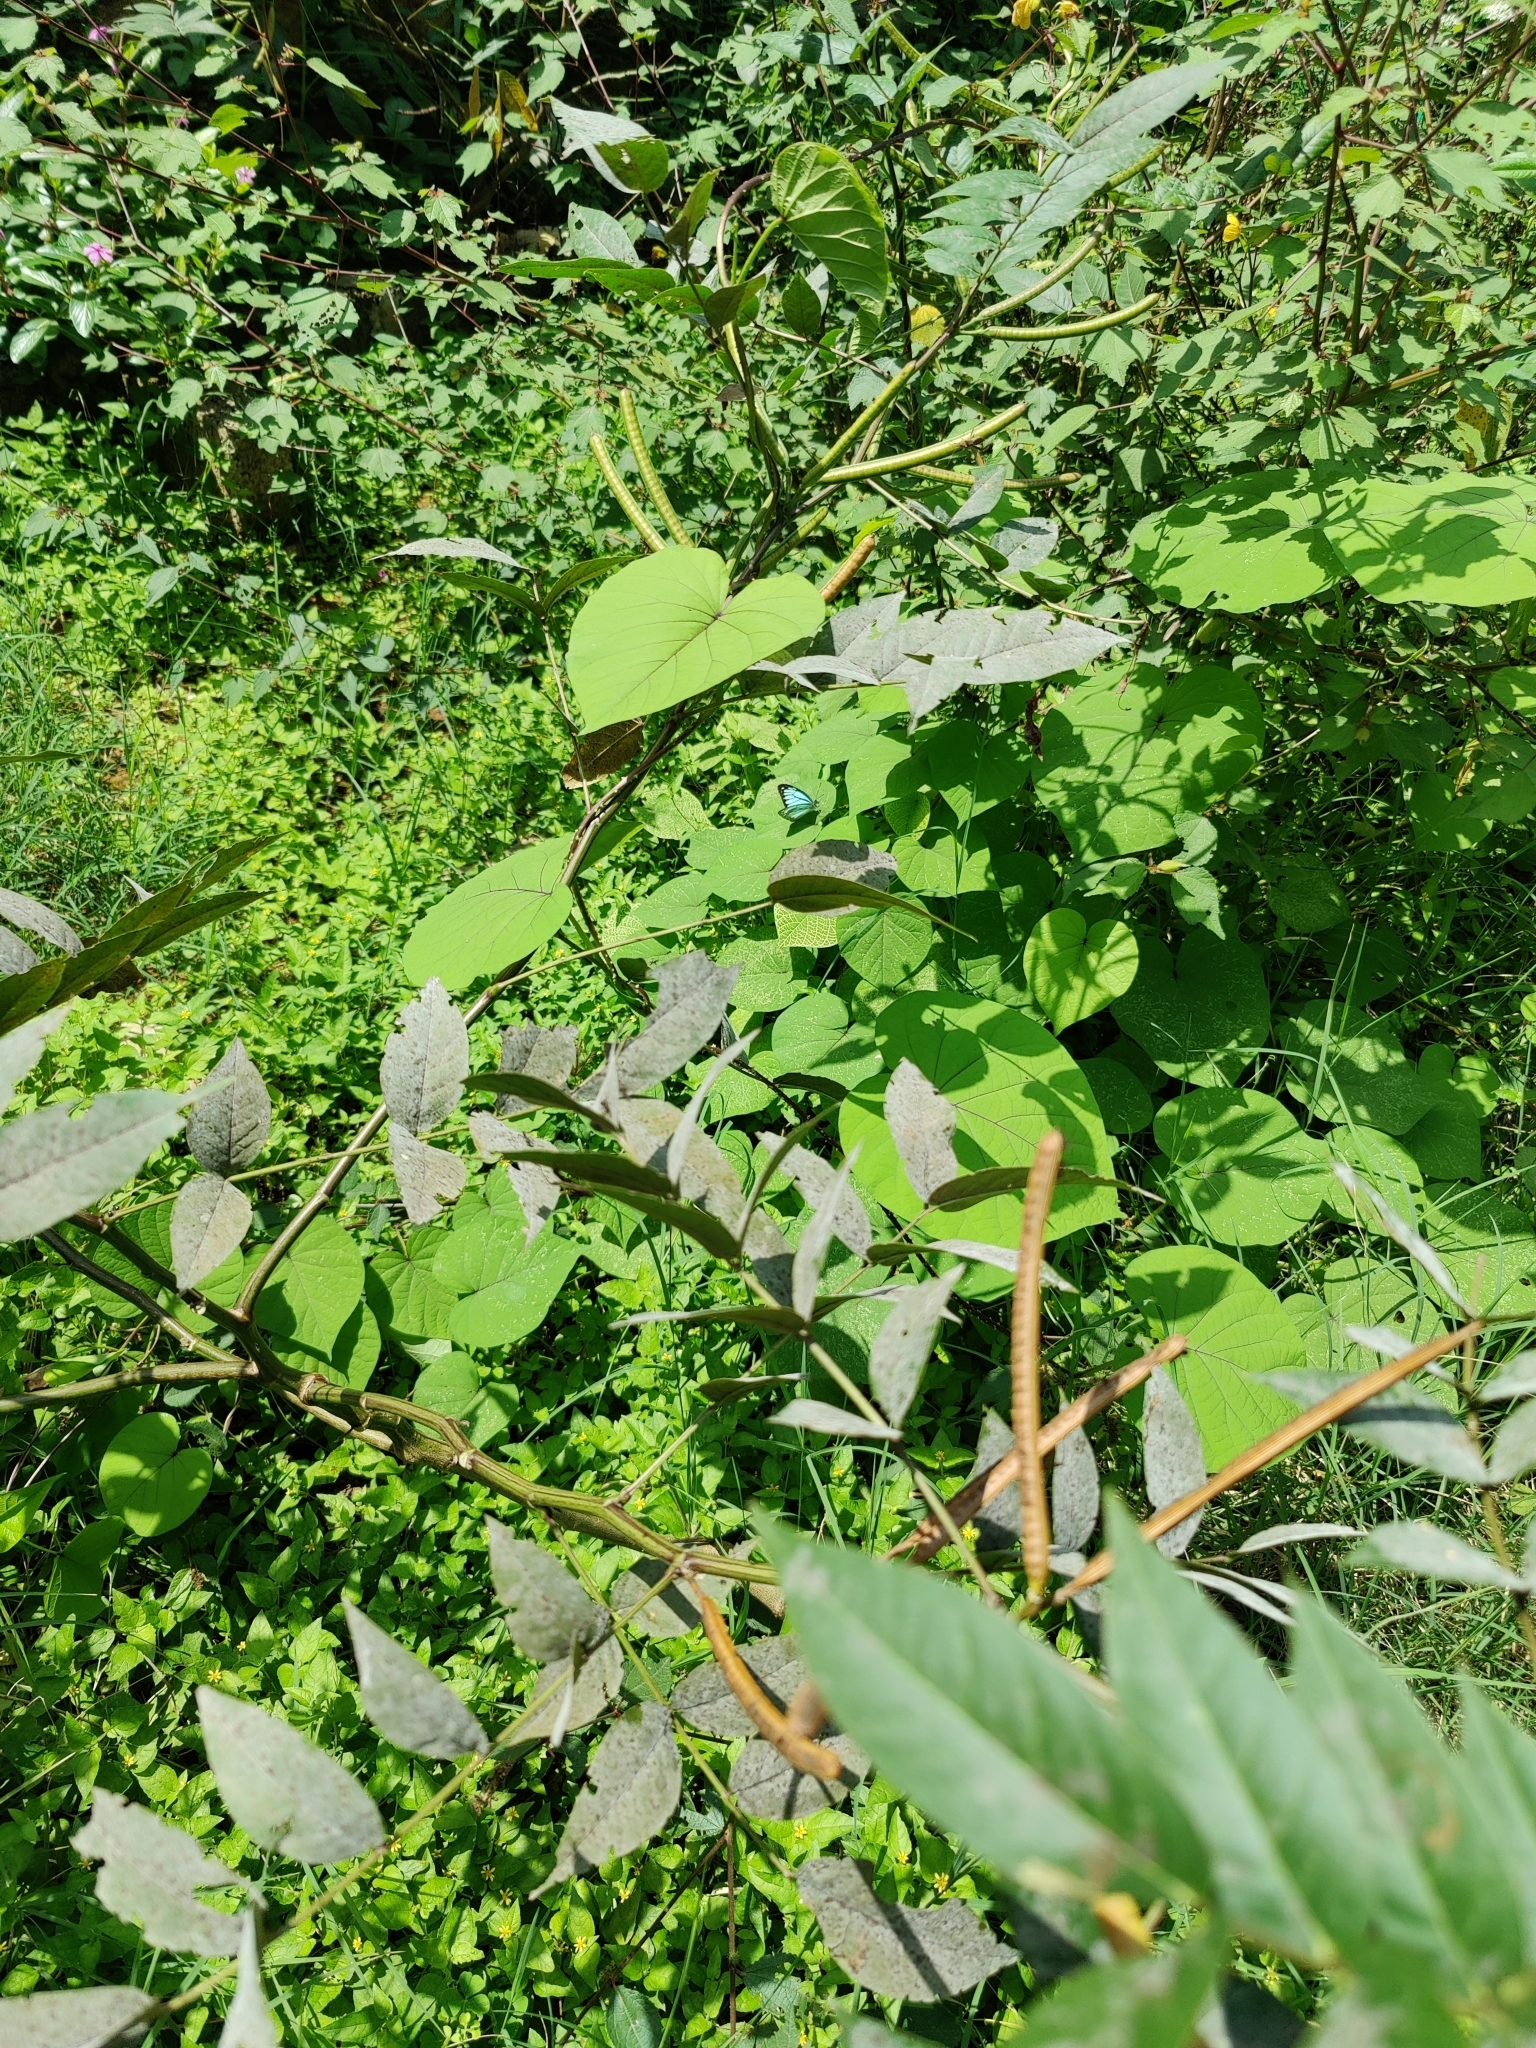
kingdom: Animalia
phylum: Arthropoda
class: Insecta
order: Lepidoptera
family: Pieridae
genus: Pareronia
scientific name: Pareronia hippia
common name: Indian wanderer
